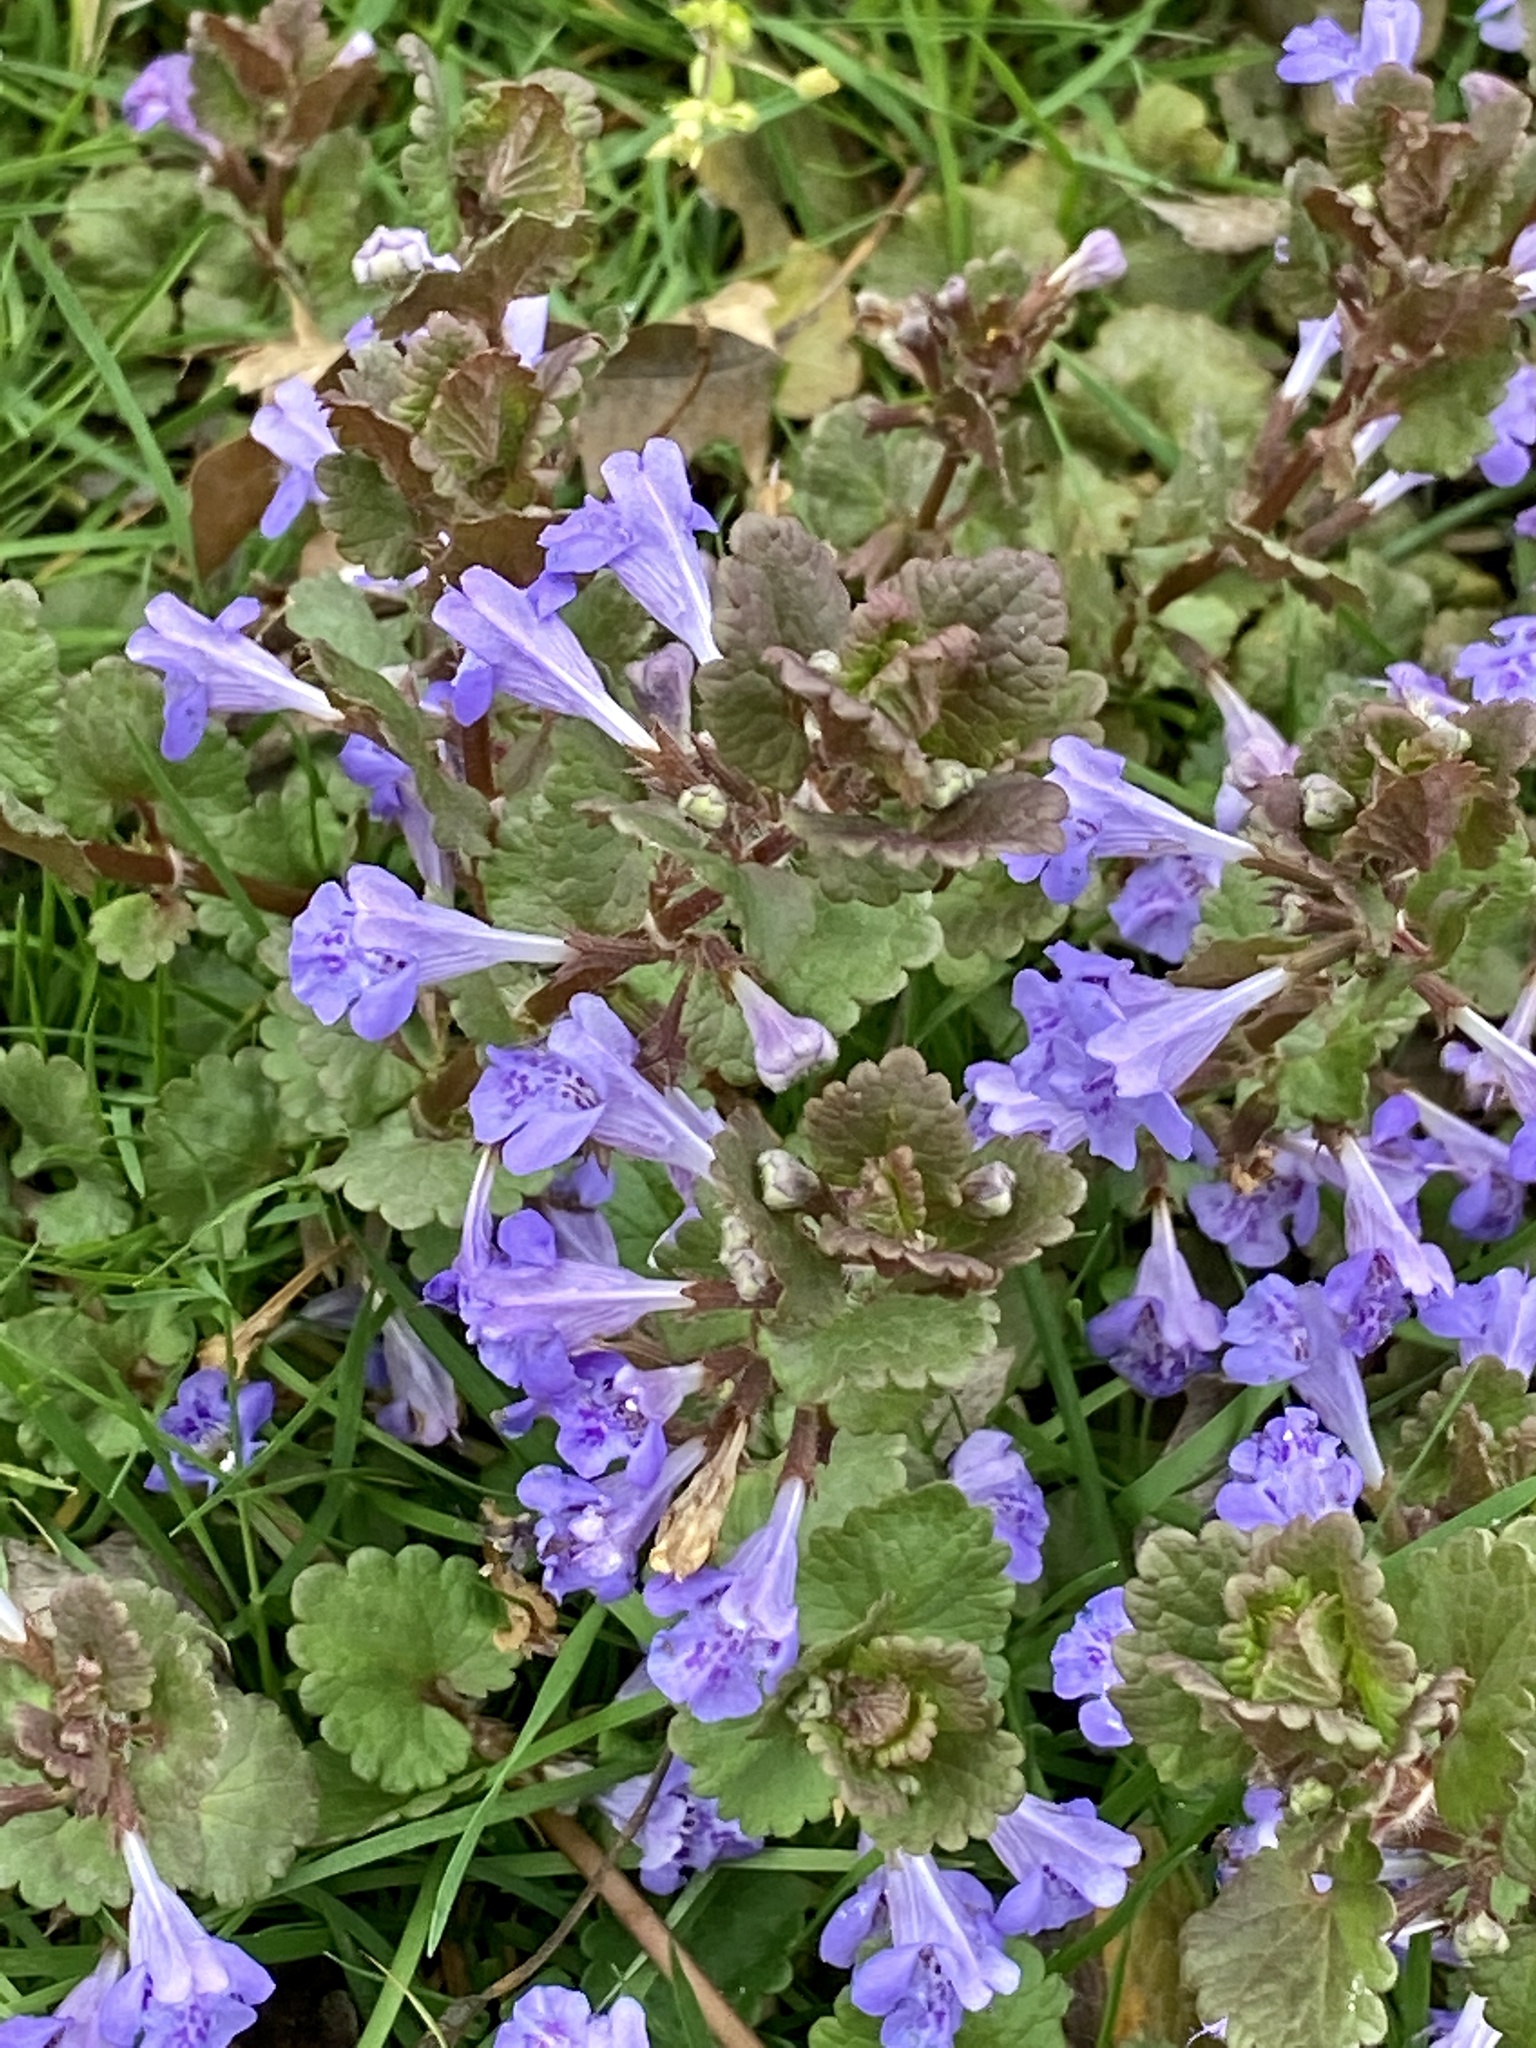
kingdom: Plantae
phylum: Tracheophyta
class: Magnoliopsida
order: Lamiales
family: Lamiaceae
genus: Glechoma
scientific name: Glechoma hederacea
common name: Ground ivy
